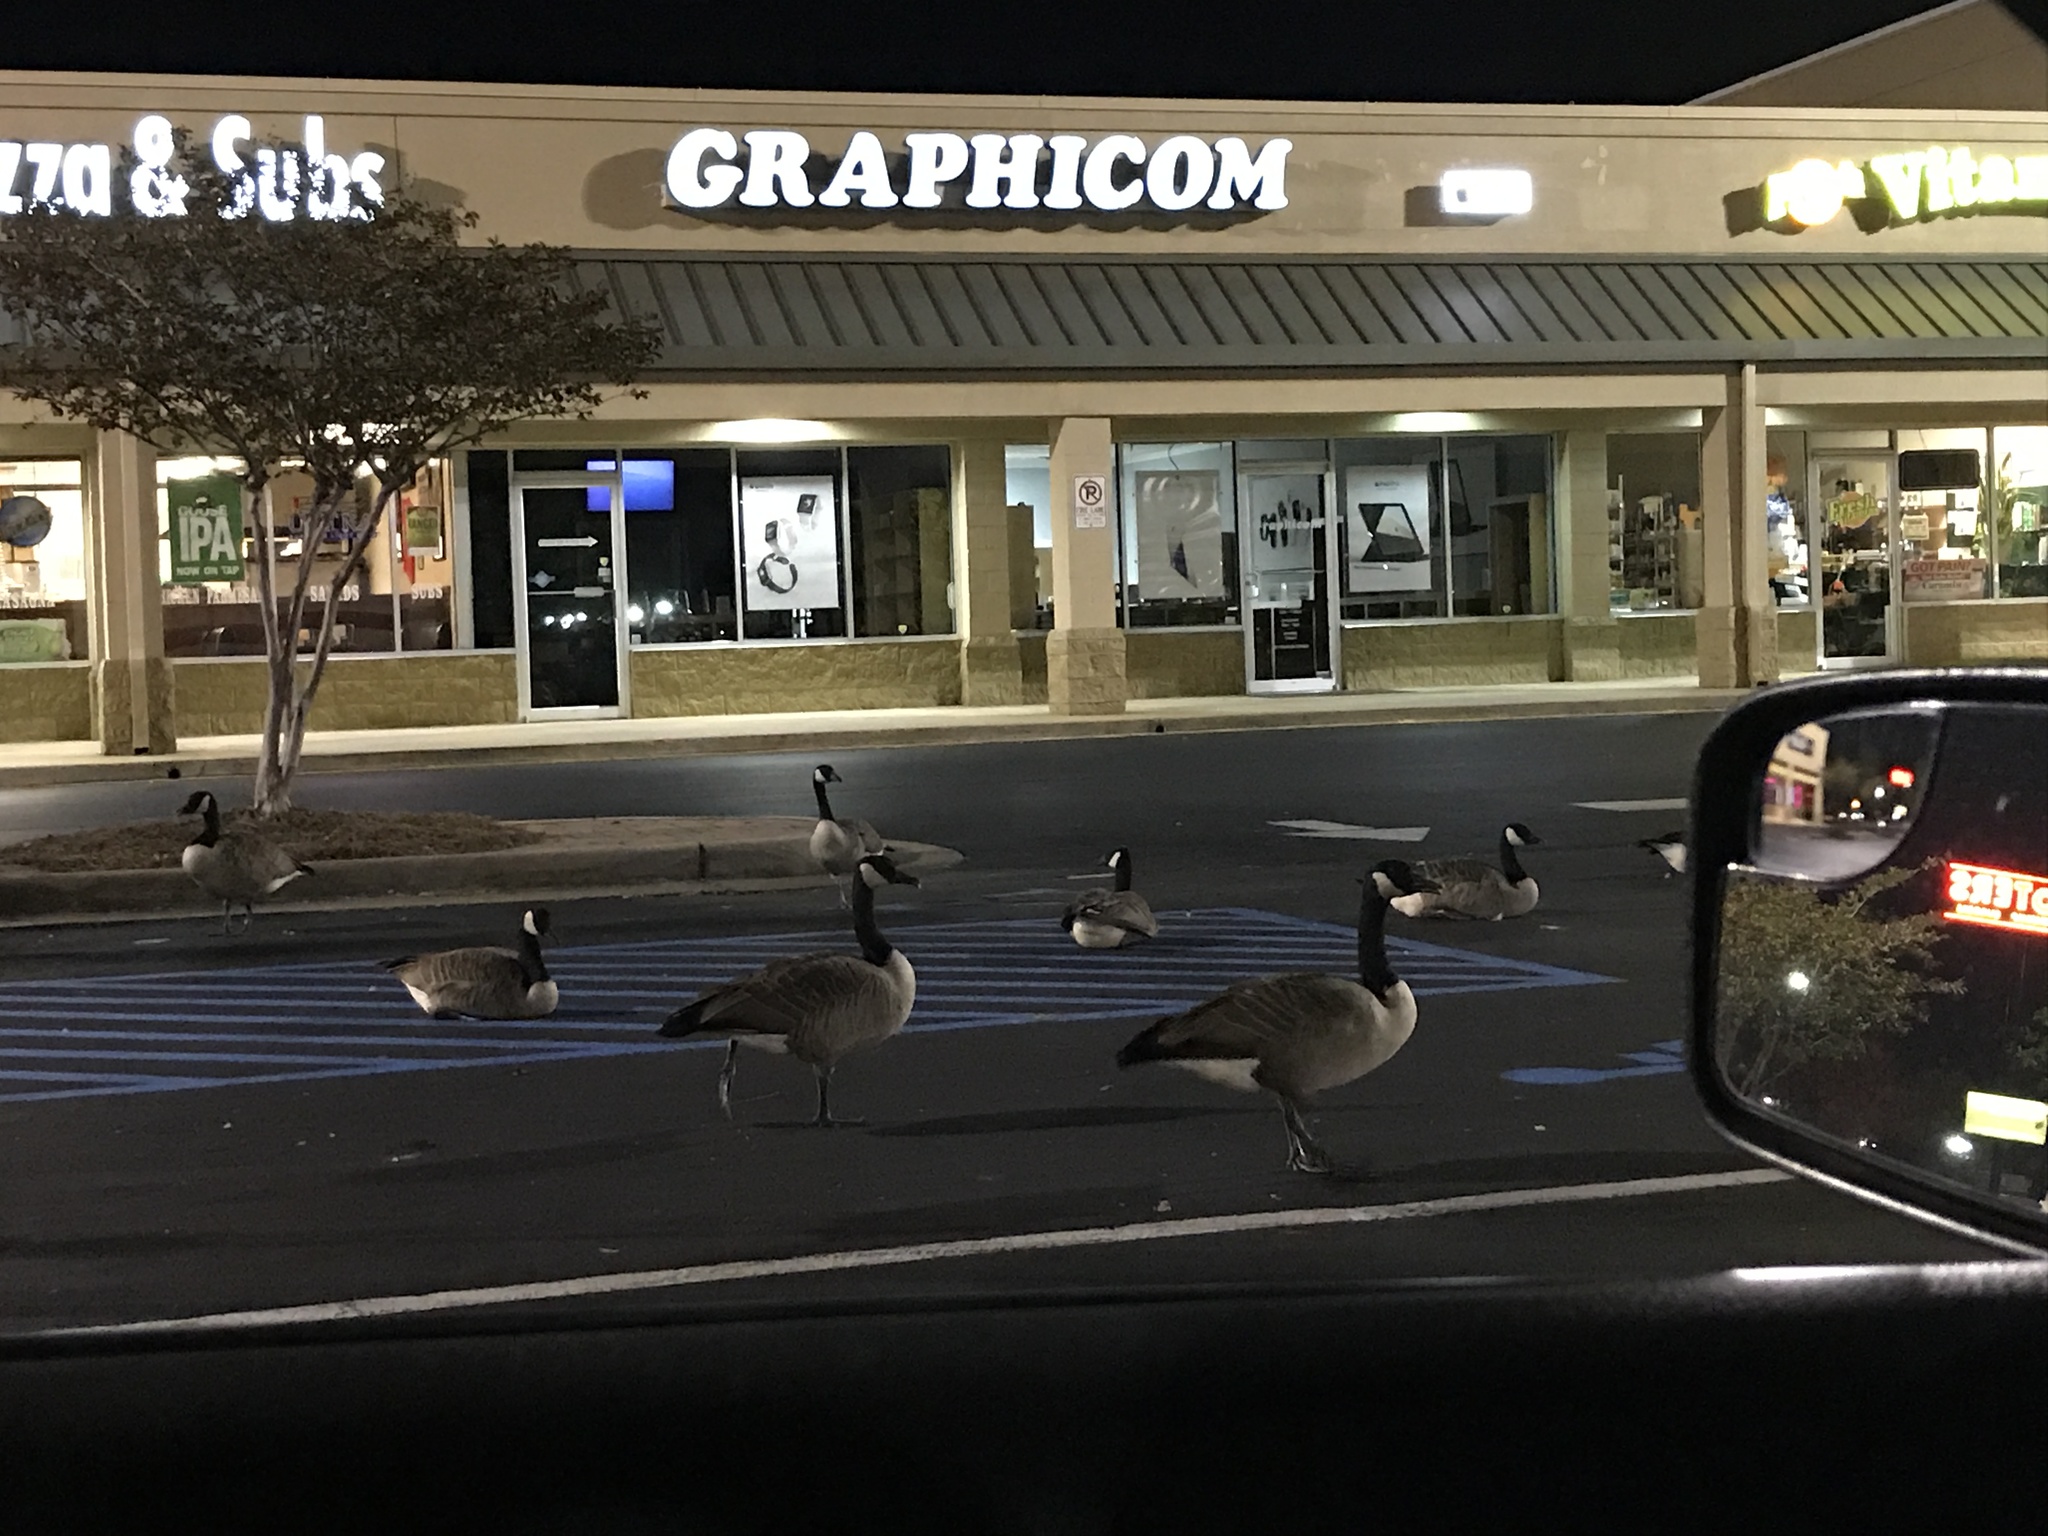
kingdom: Animalia
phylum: Chordata
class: Aves
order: Anseriformes
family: Anatidae
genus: Branta
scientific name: Branta canadensis
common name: Canada goose
